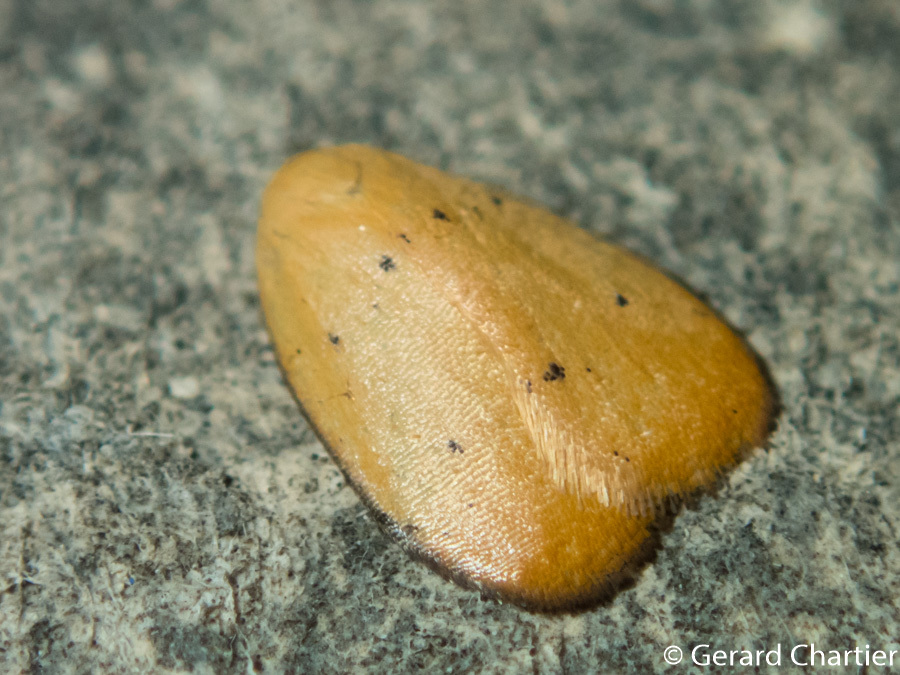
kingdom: Animalia
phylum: Arthropoda
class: Insecta
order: Lepidoptera
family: Erebidae
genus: Heliohemonia
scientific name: Heliohemonia aurantia
